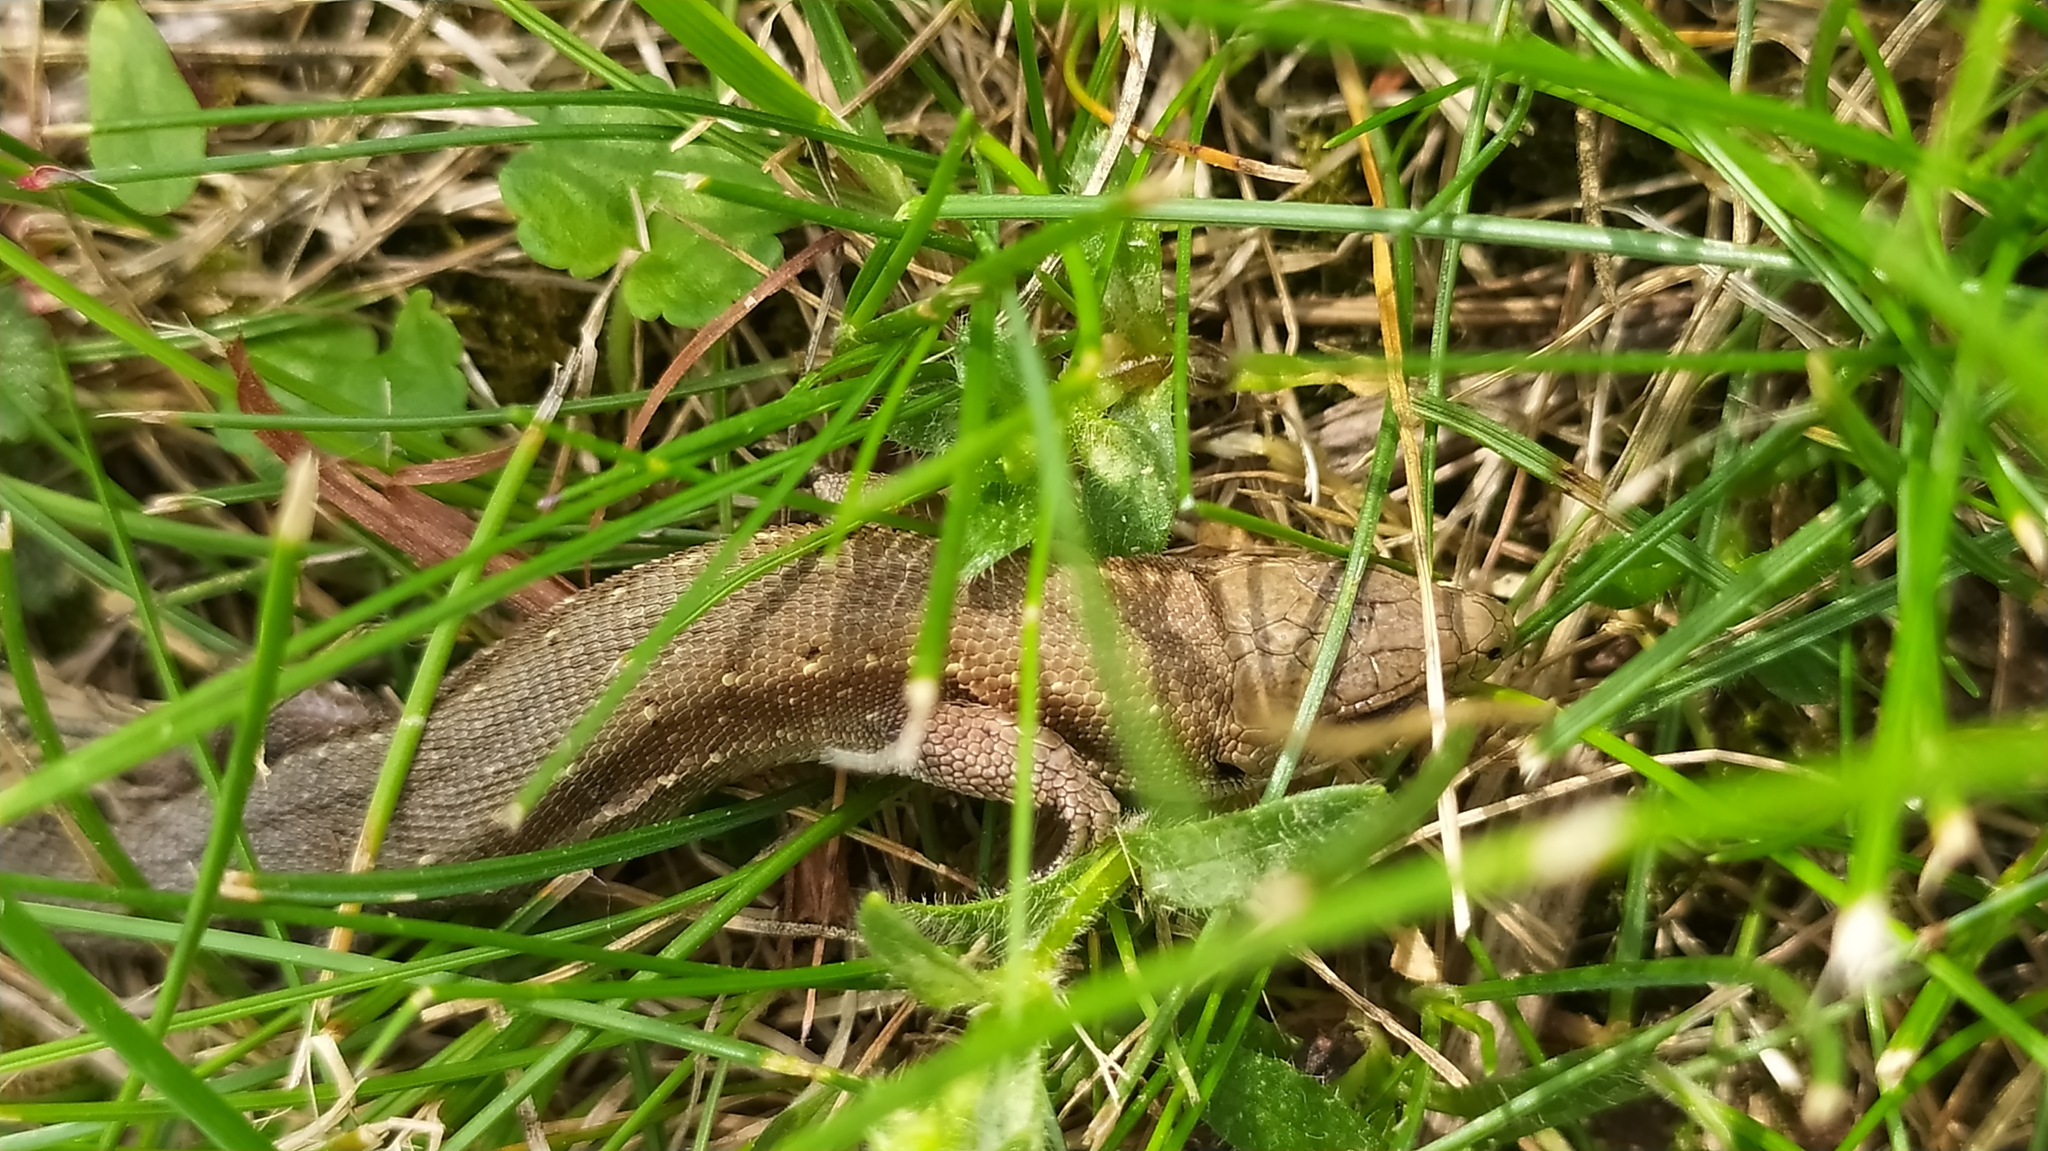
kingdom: Animalia
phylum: Chordata
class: Squamata
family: Lacertidae
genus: Zootoca
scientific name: Zootoca vivipara
